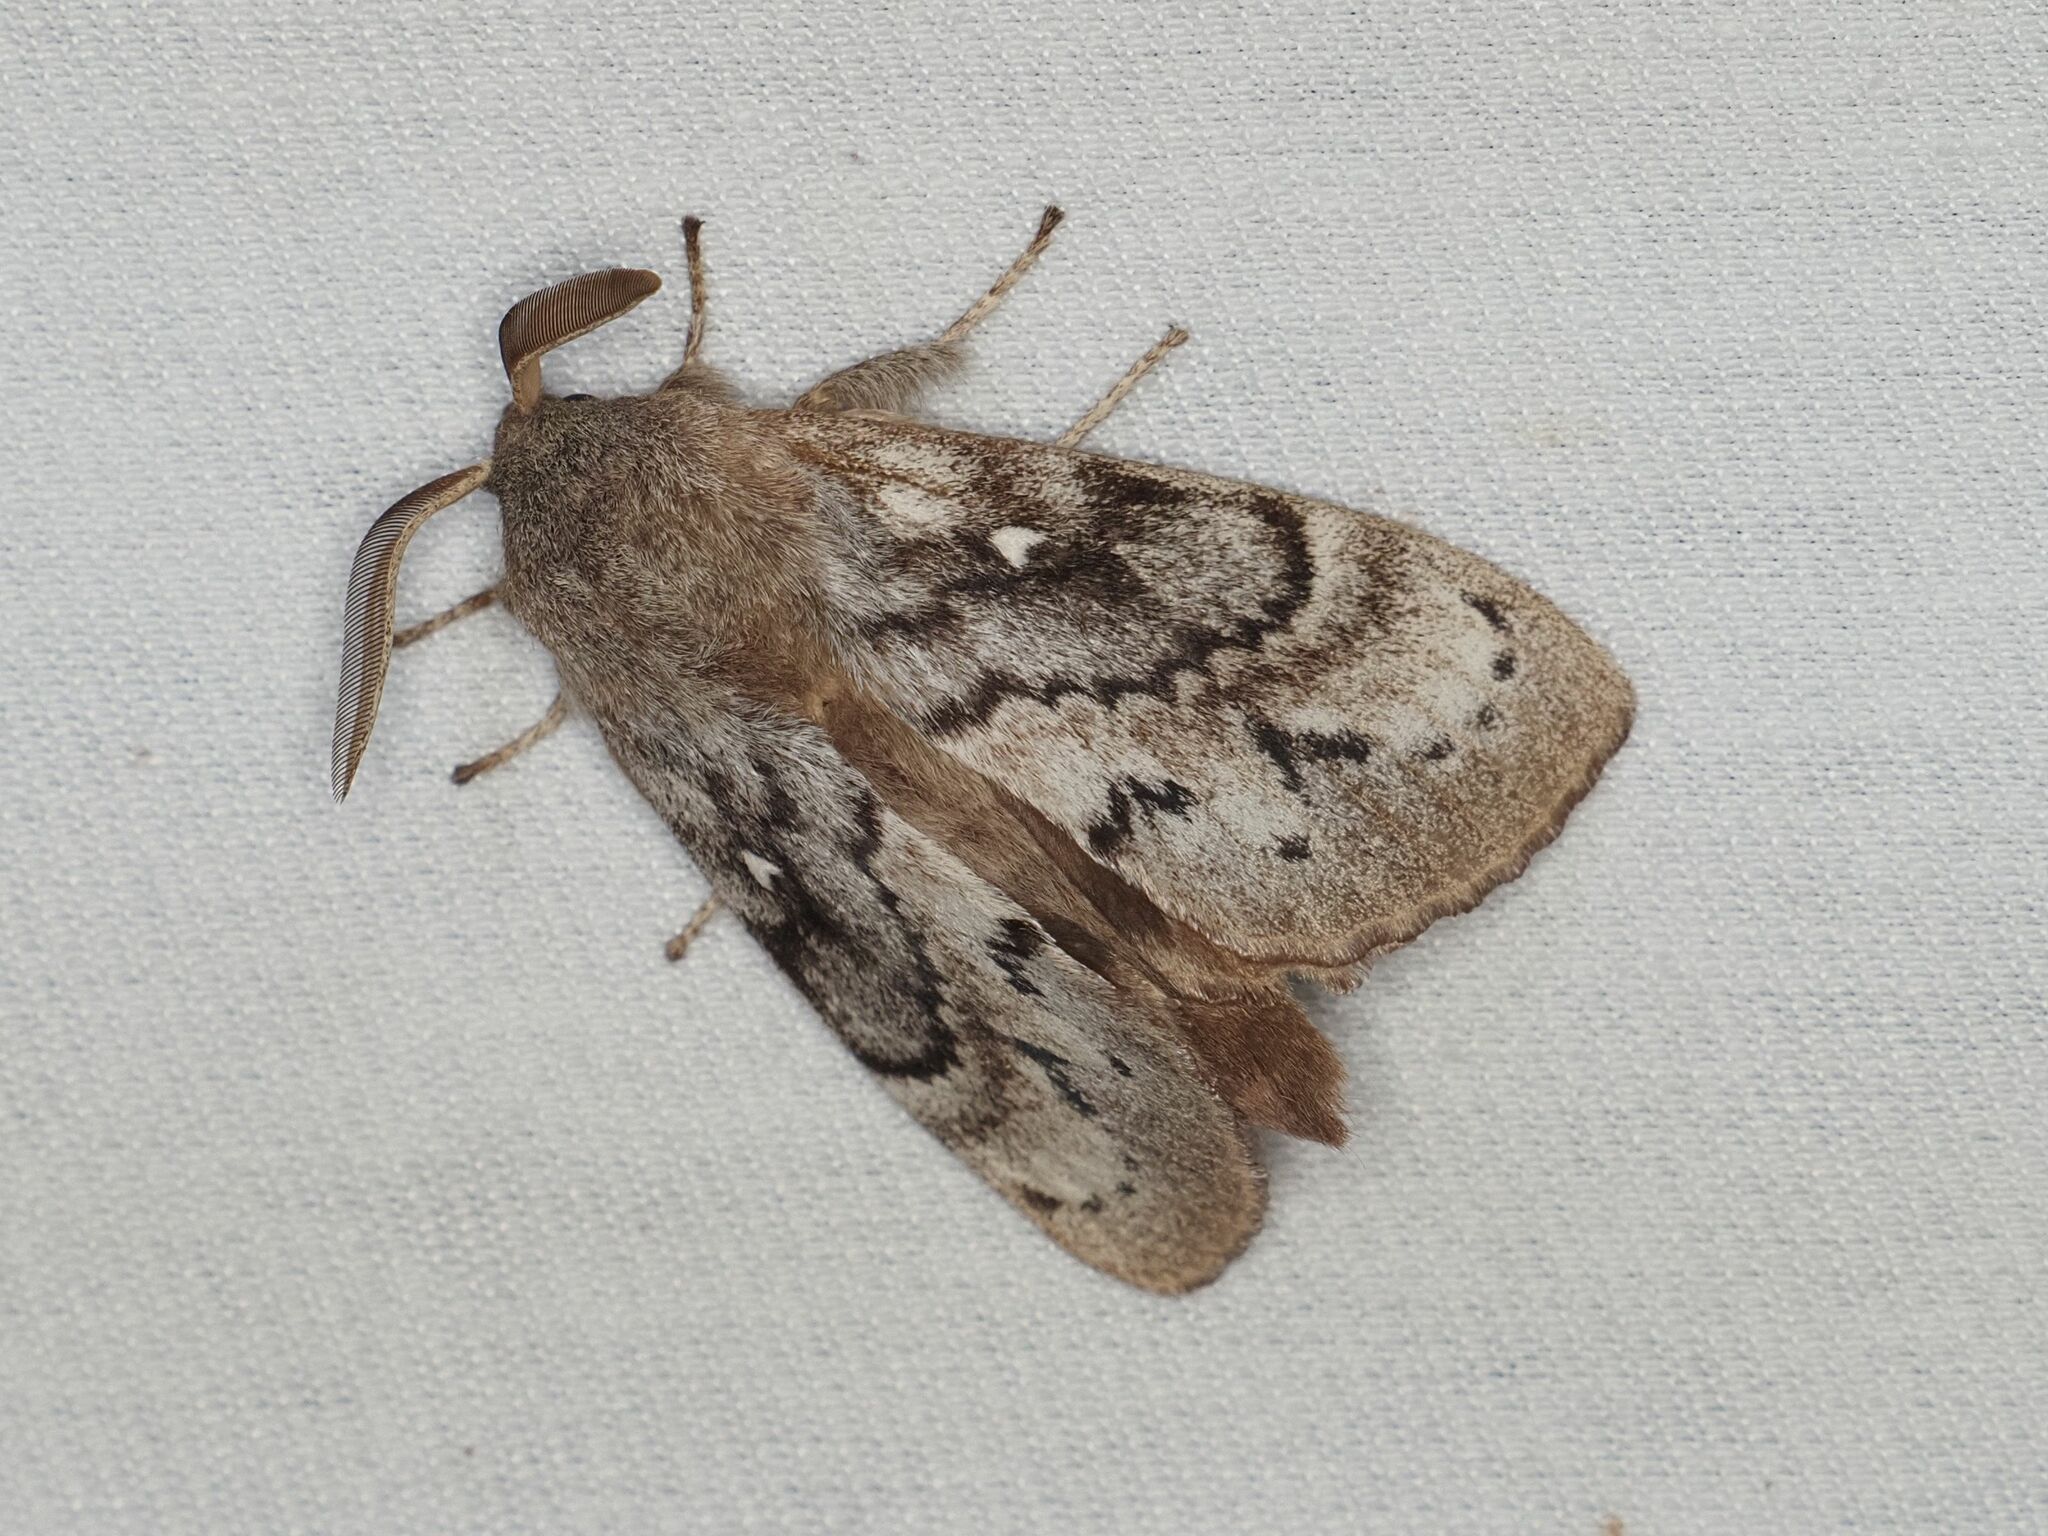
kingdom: Animalia
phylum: Arthropoda
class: Insecta
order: Lepidoptera
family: Lasiocampidae
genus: Dendrolimus
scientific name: Dendrolimus pini
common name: Pine-tree lappet
